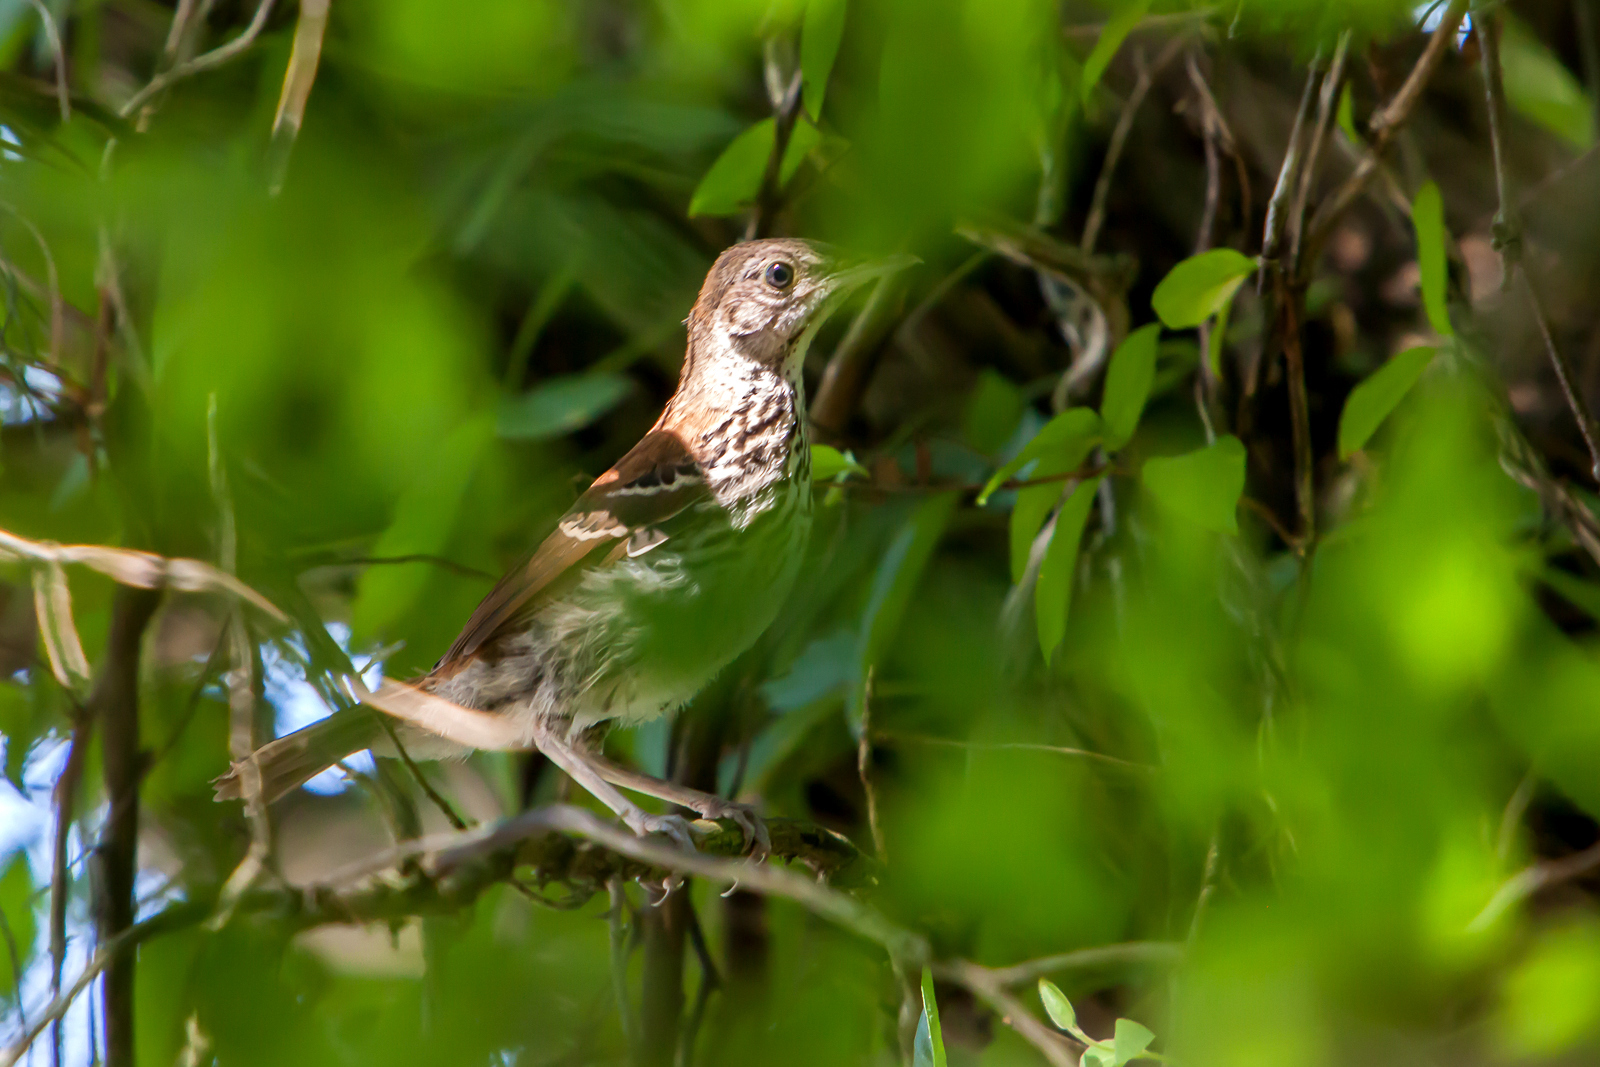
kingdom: Animalia
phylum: Chordata
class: Aves
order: Passeriformes
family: Mimidae
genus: Toxostoma
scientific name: Toxostoma rufum
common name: Brown thrasher
